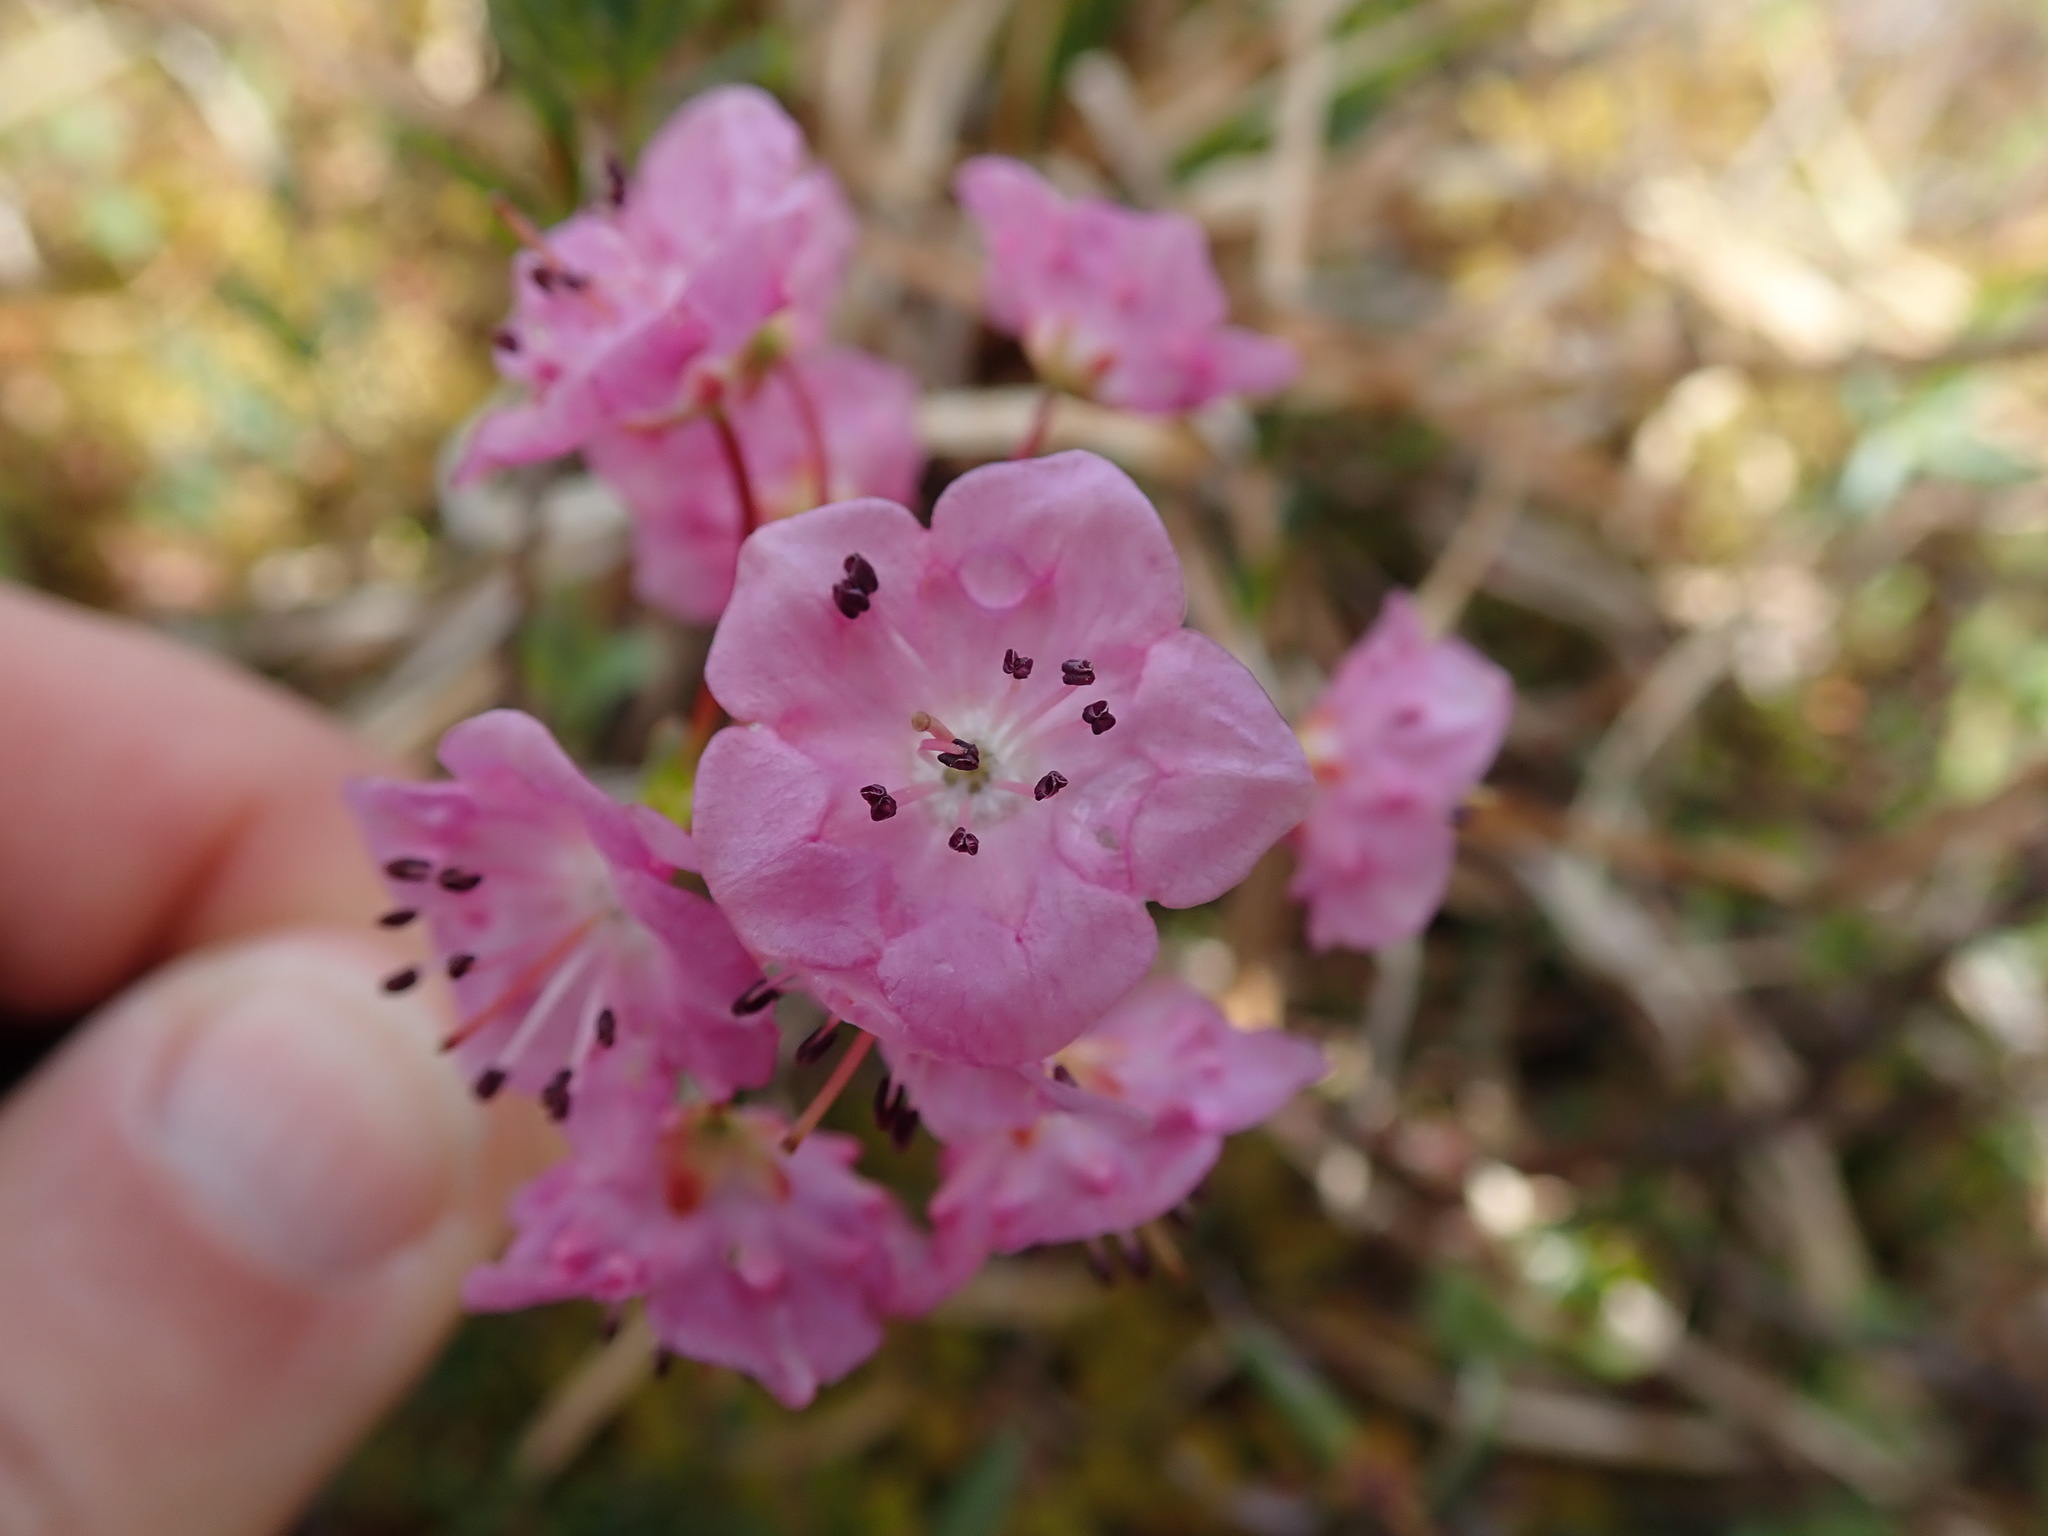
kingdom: Plantae
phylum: Tracheophyta
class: Magnoliopsida
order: Ericales
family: Ericaceae
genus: Kalmia
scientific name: Kalmia microphylla
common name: Alpine bog laurel
